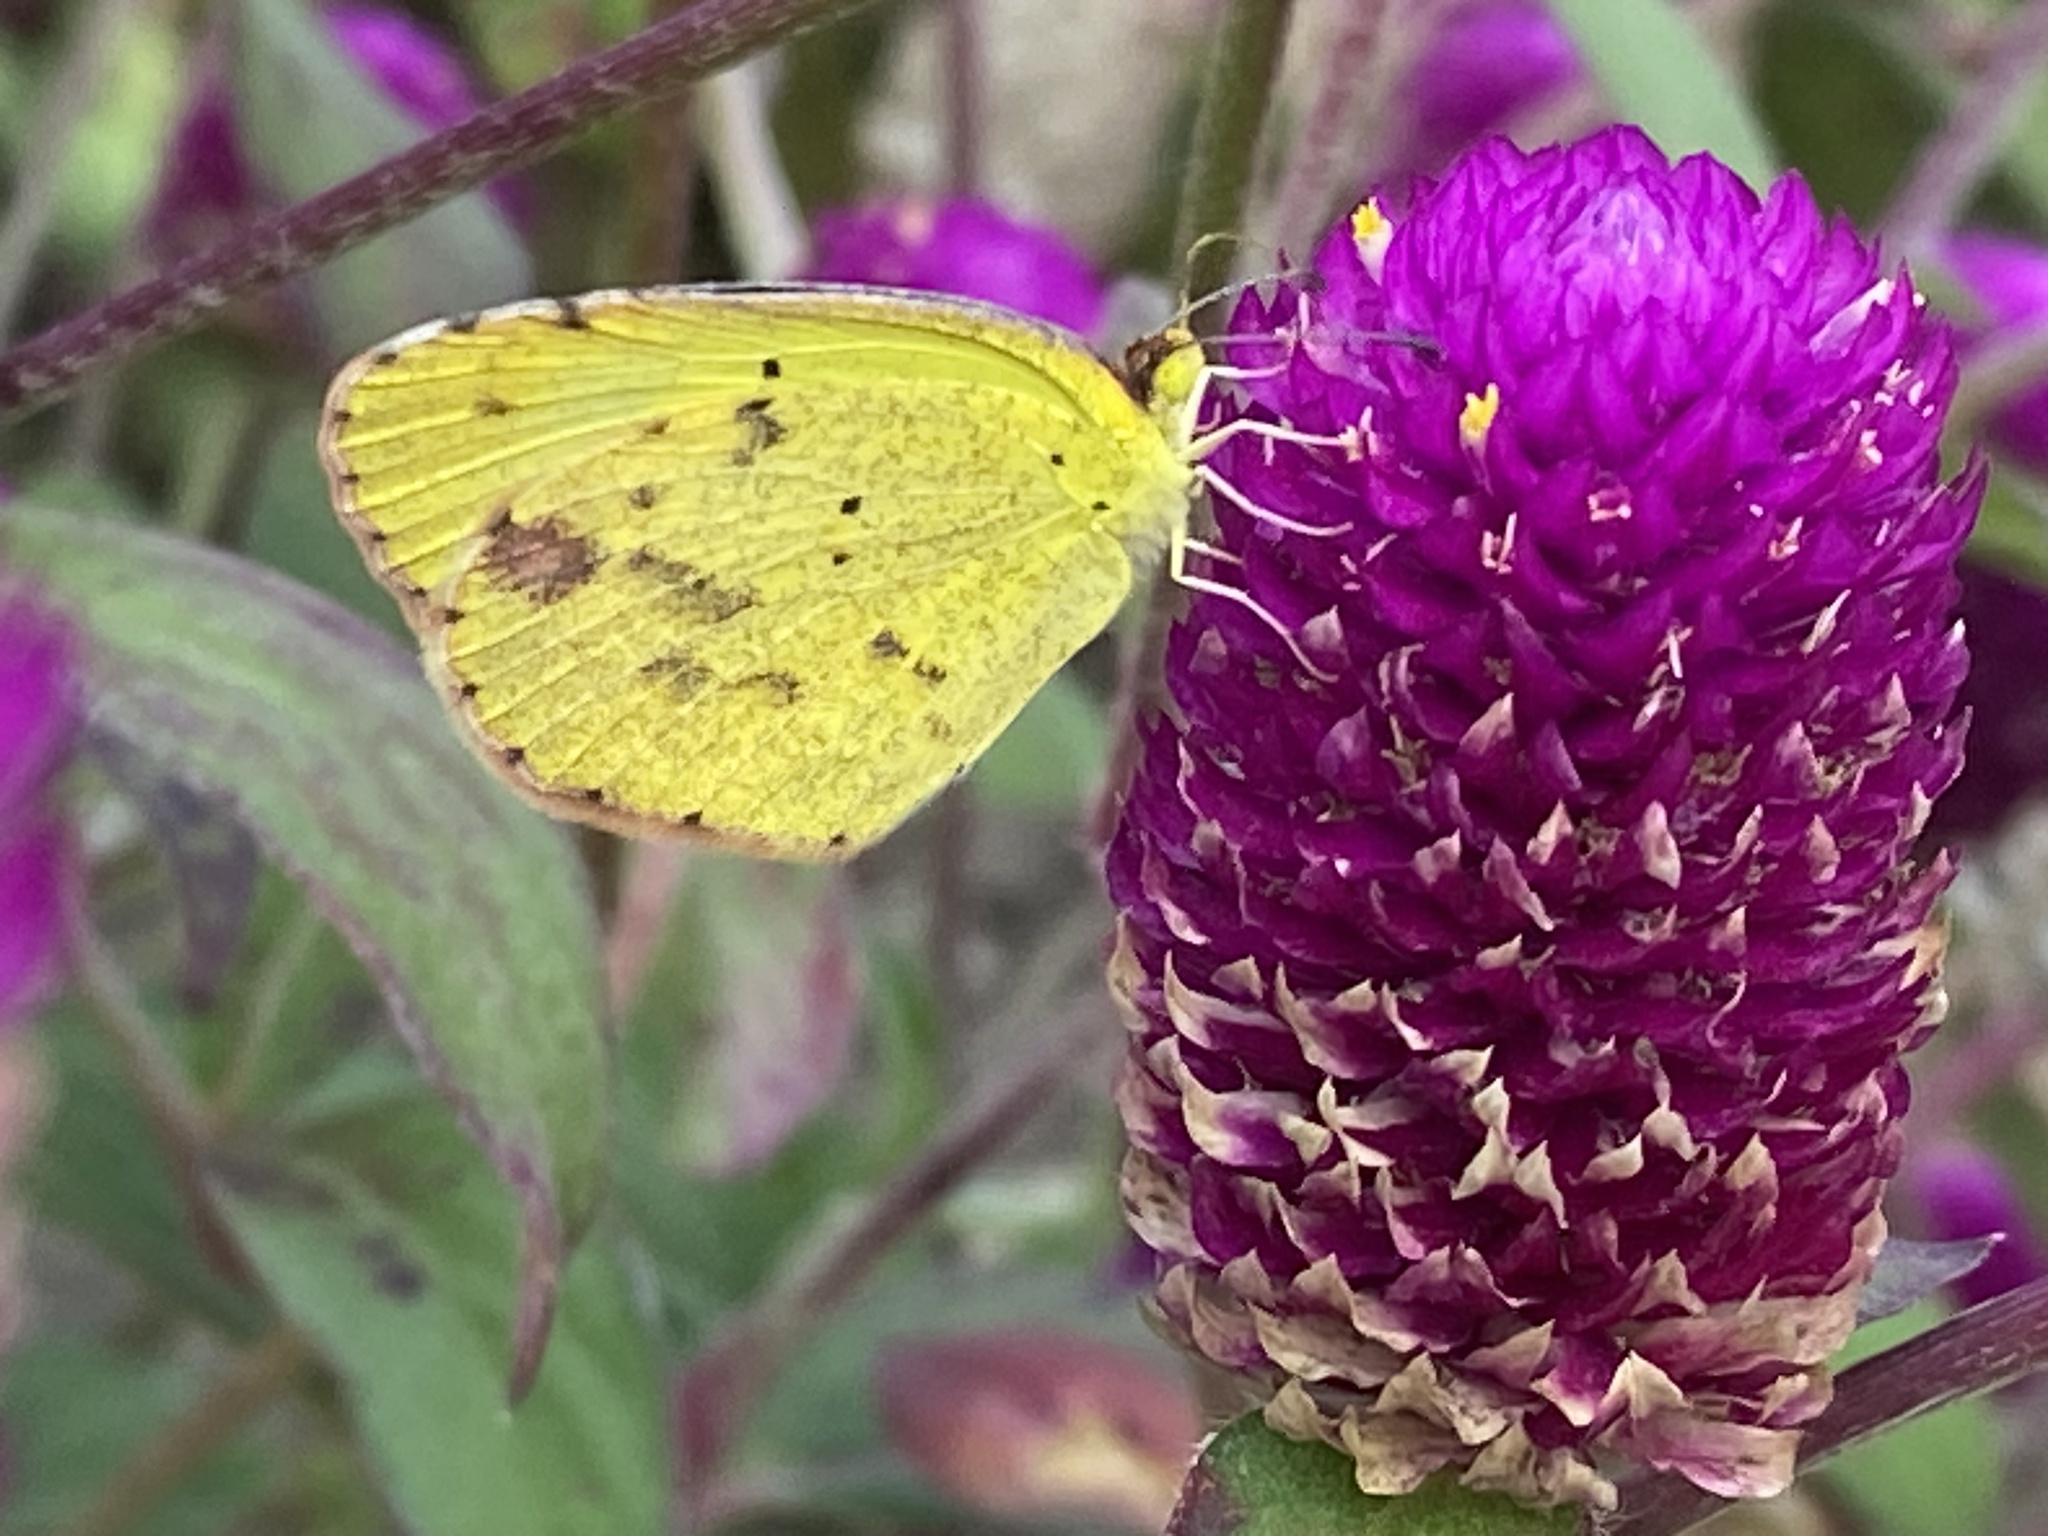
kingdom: Animalia
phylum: Arthropoda
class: Insecta
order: Lepidoptera
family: Pieridae
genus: Pyrisitia
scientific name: Pyrisitia lisa
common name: Little yellow
